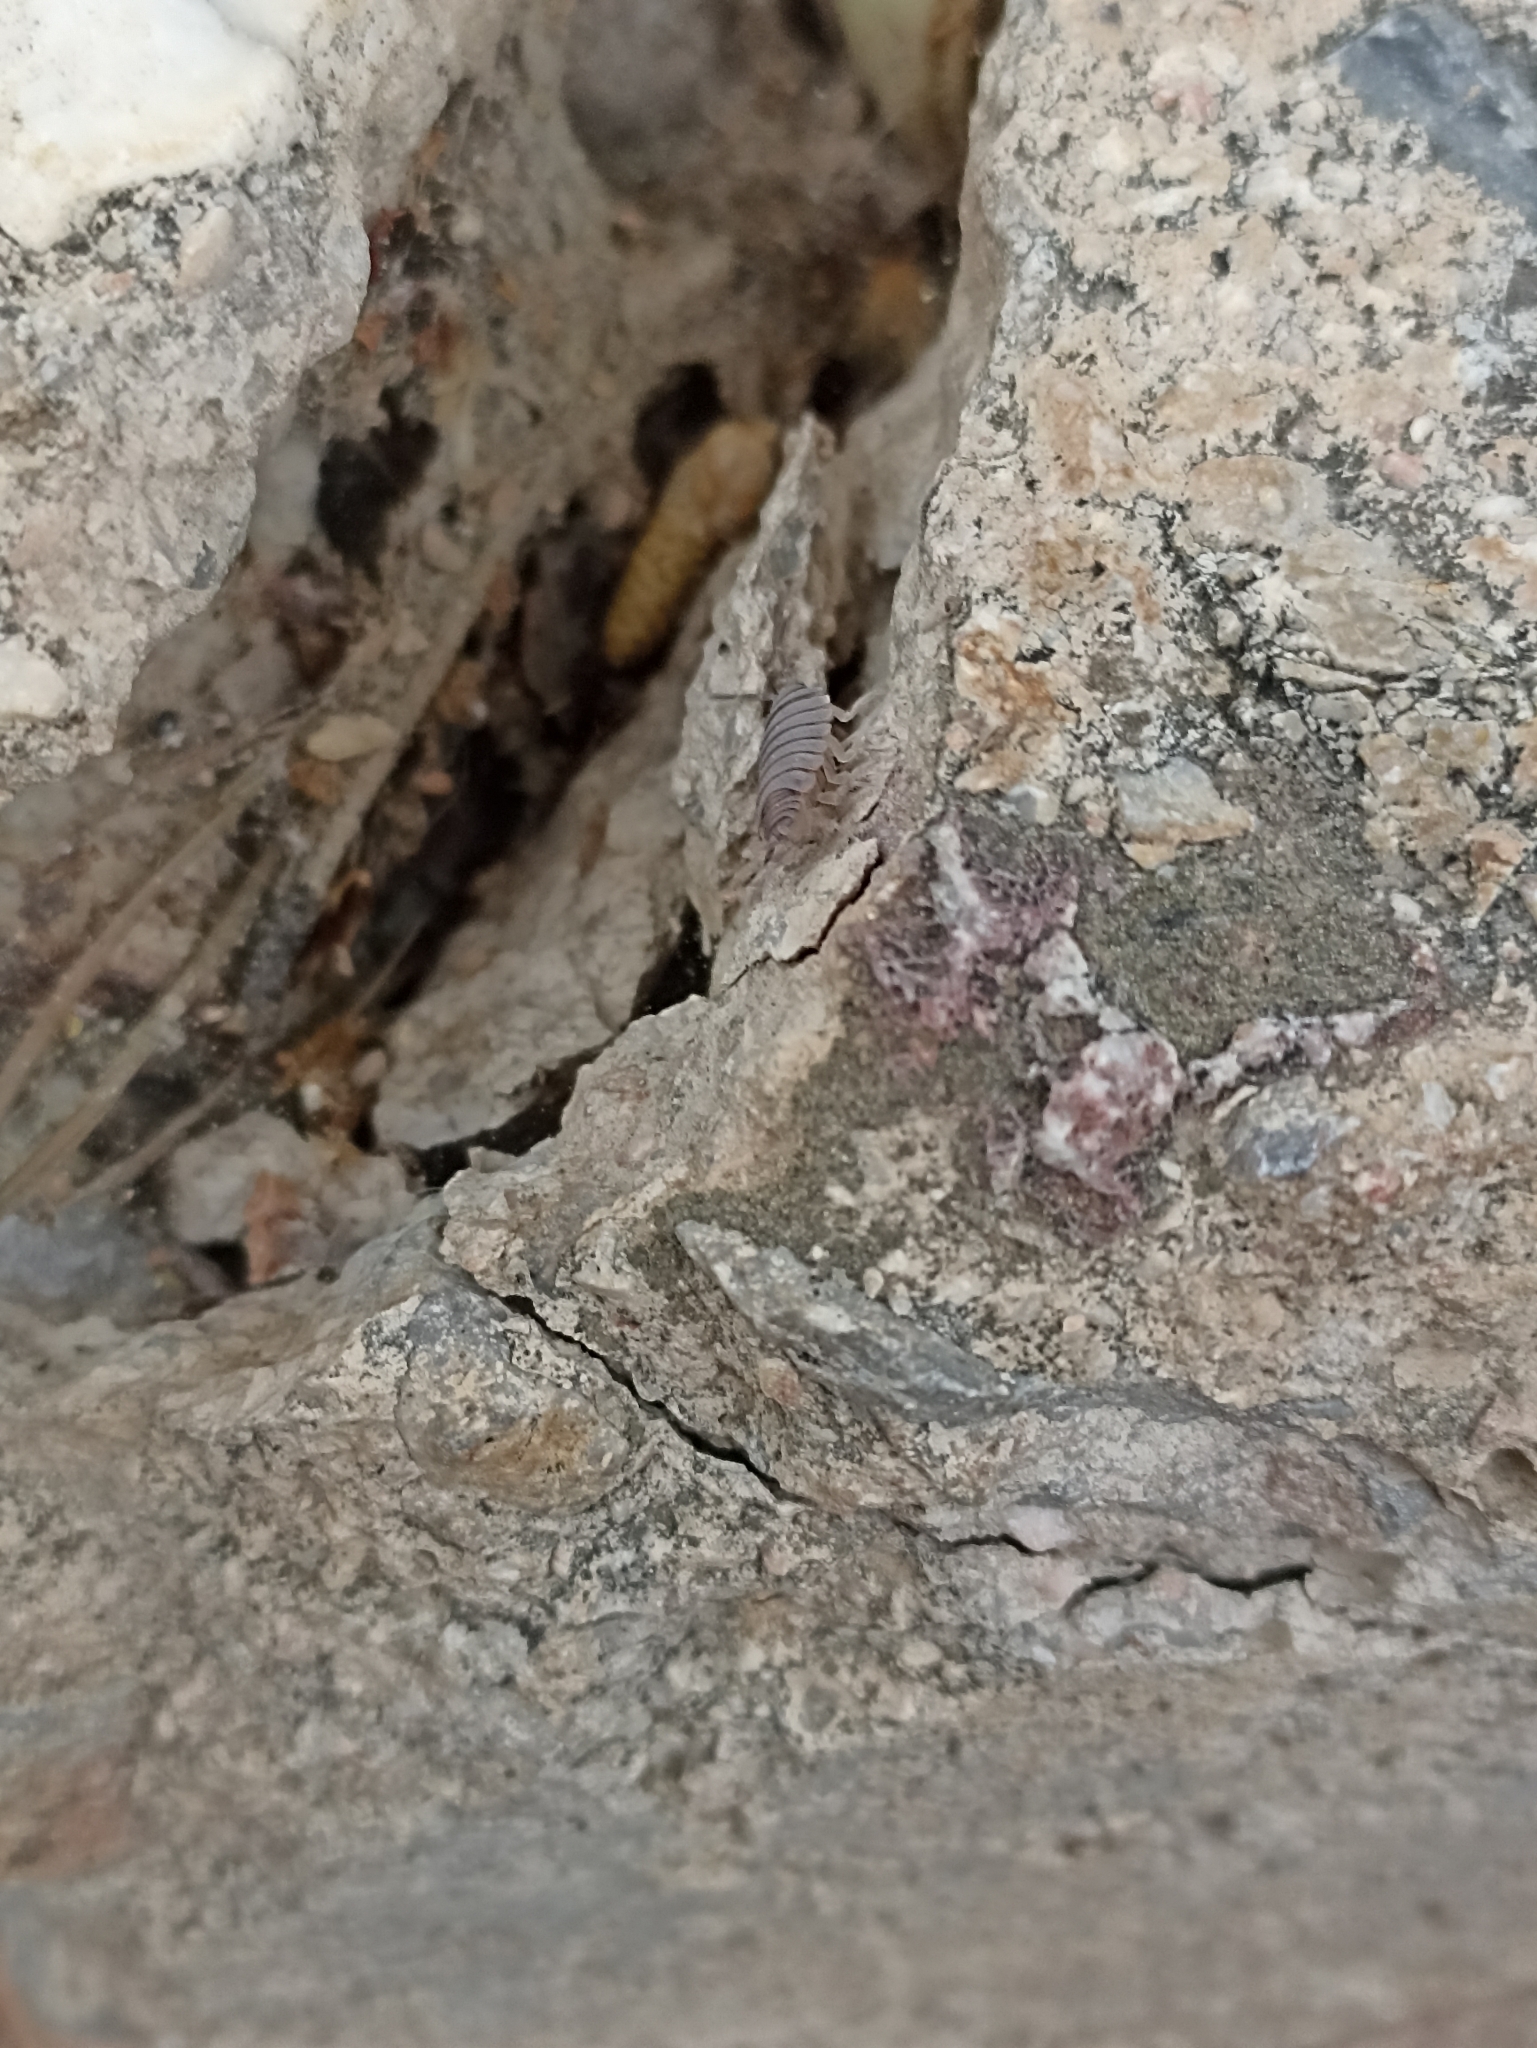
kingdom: Animalia
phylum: Arthropoda
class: Malacostraca
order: Isopoda
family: Porcellionidae
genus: Porcellionides
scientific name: Porcellionides pruinosus
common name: Plum woodlouse
